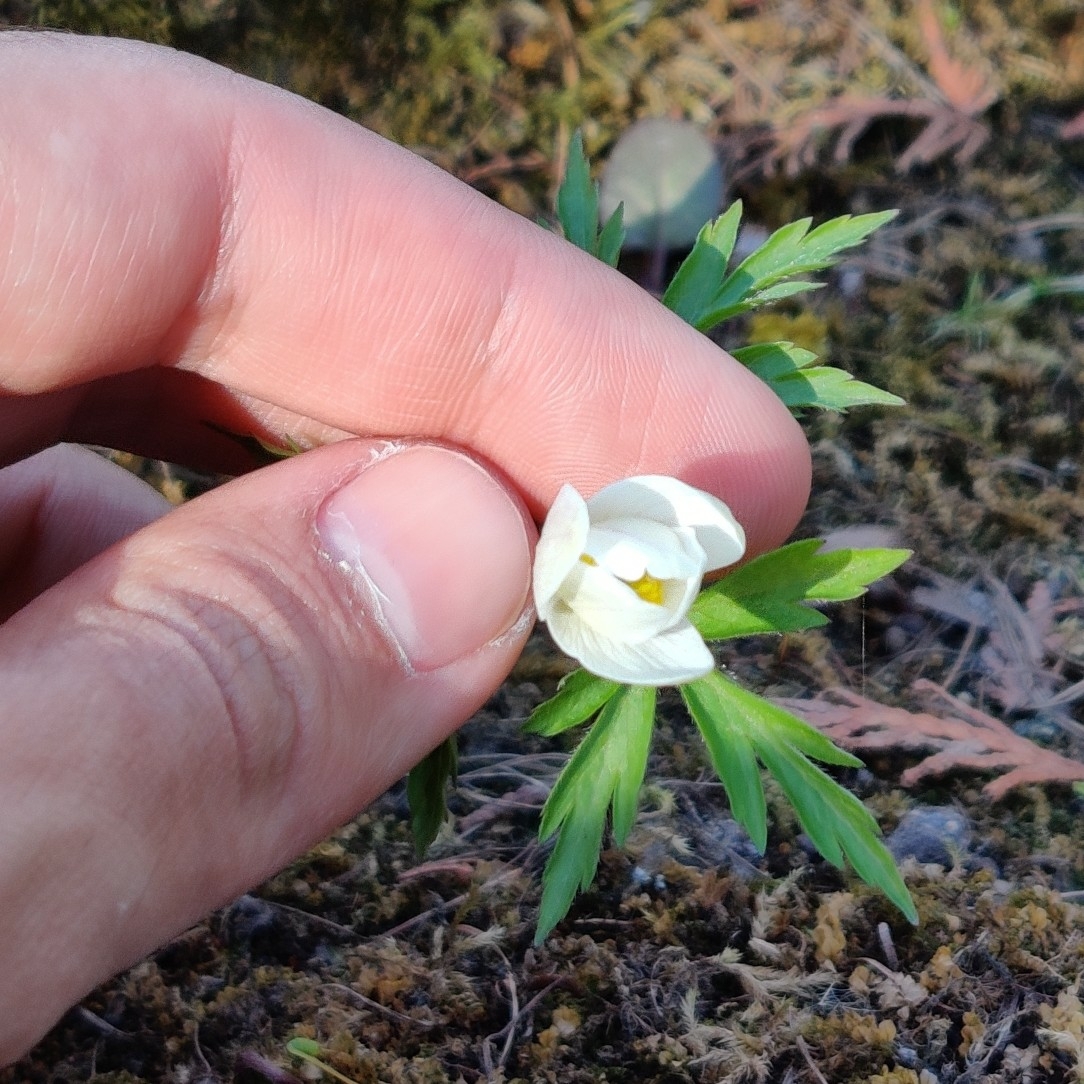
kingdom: Plantae
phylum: Tracheophyta
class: Magnoliopsida
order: Ranunculales
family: Ranunculaceae
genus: Anemone
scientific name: Anemone nemorosa
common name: Wood anemone
